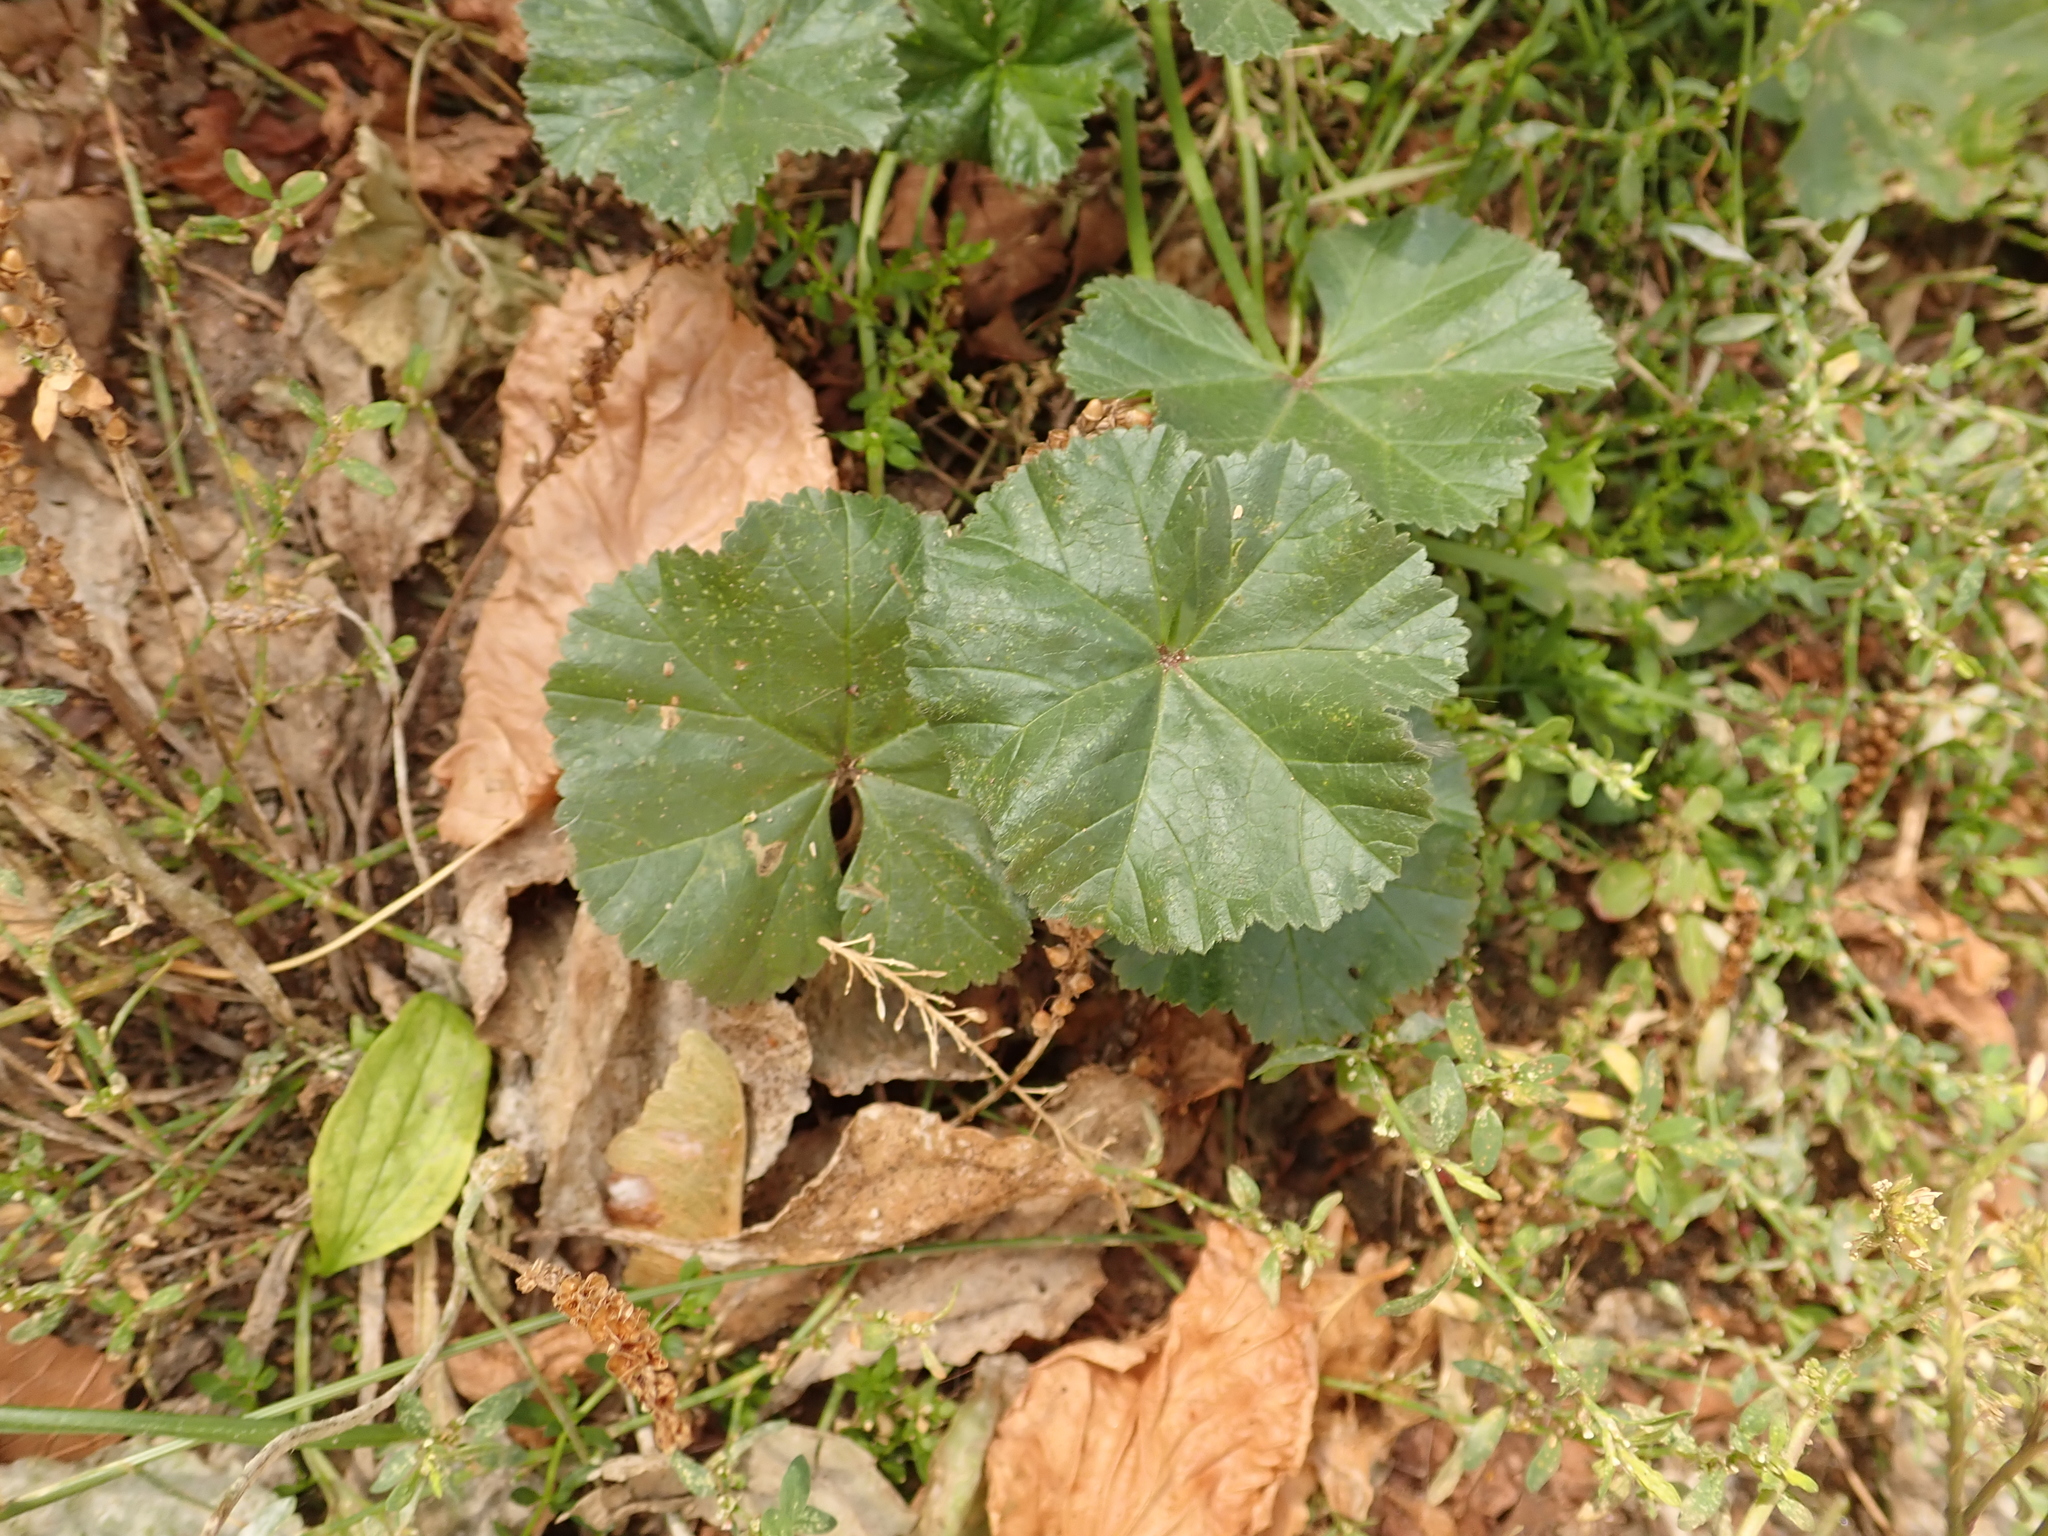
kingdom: Plantae
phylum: Tracheophyta
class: Magnoliopsida
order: Malvales
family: Malvaceae
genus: Malva
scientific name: Malva neglecta
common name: Common mallow
